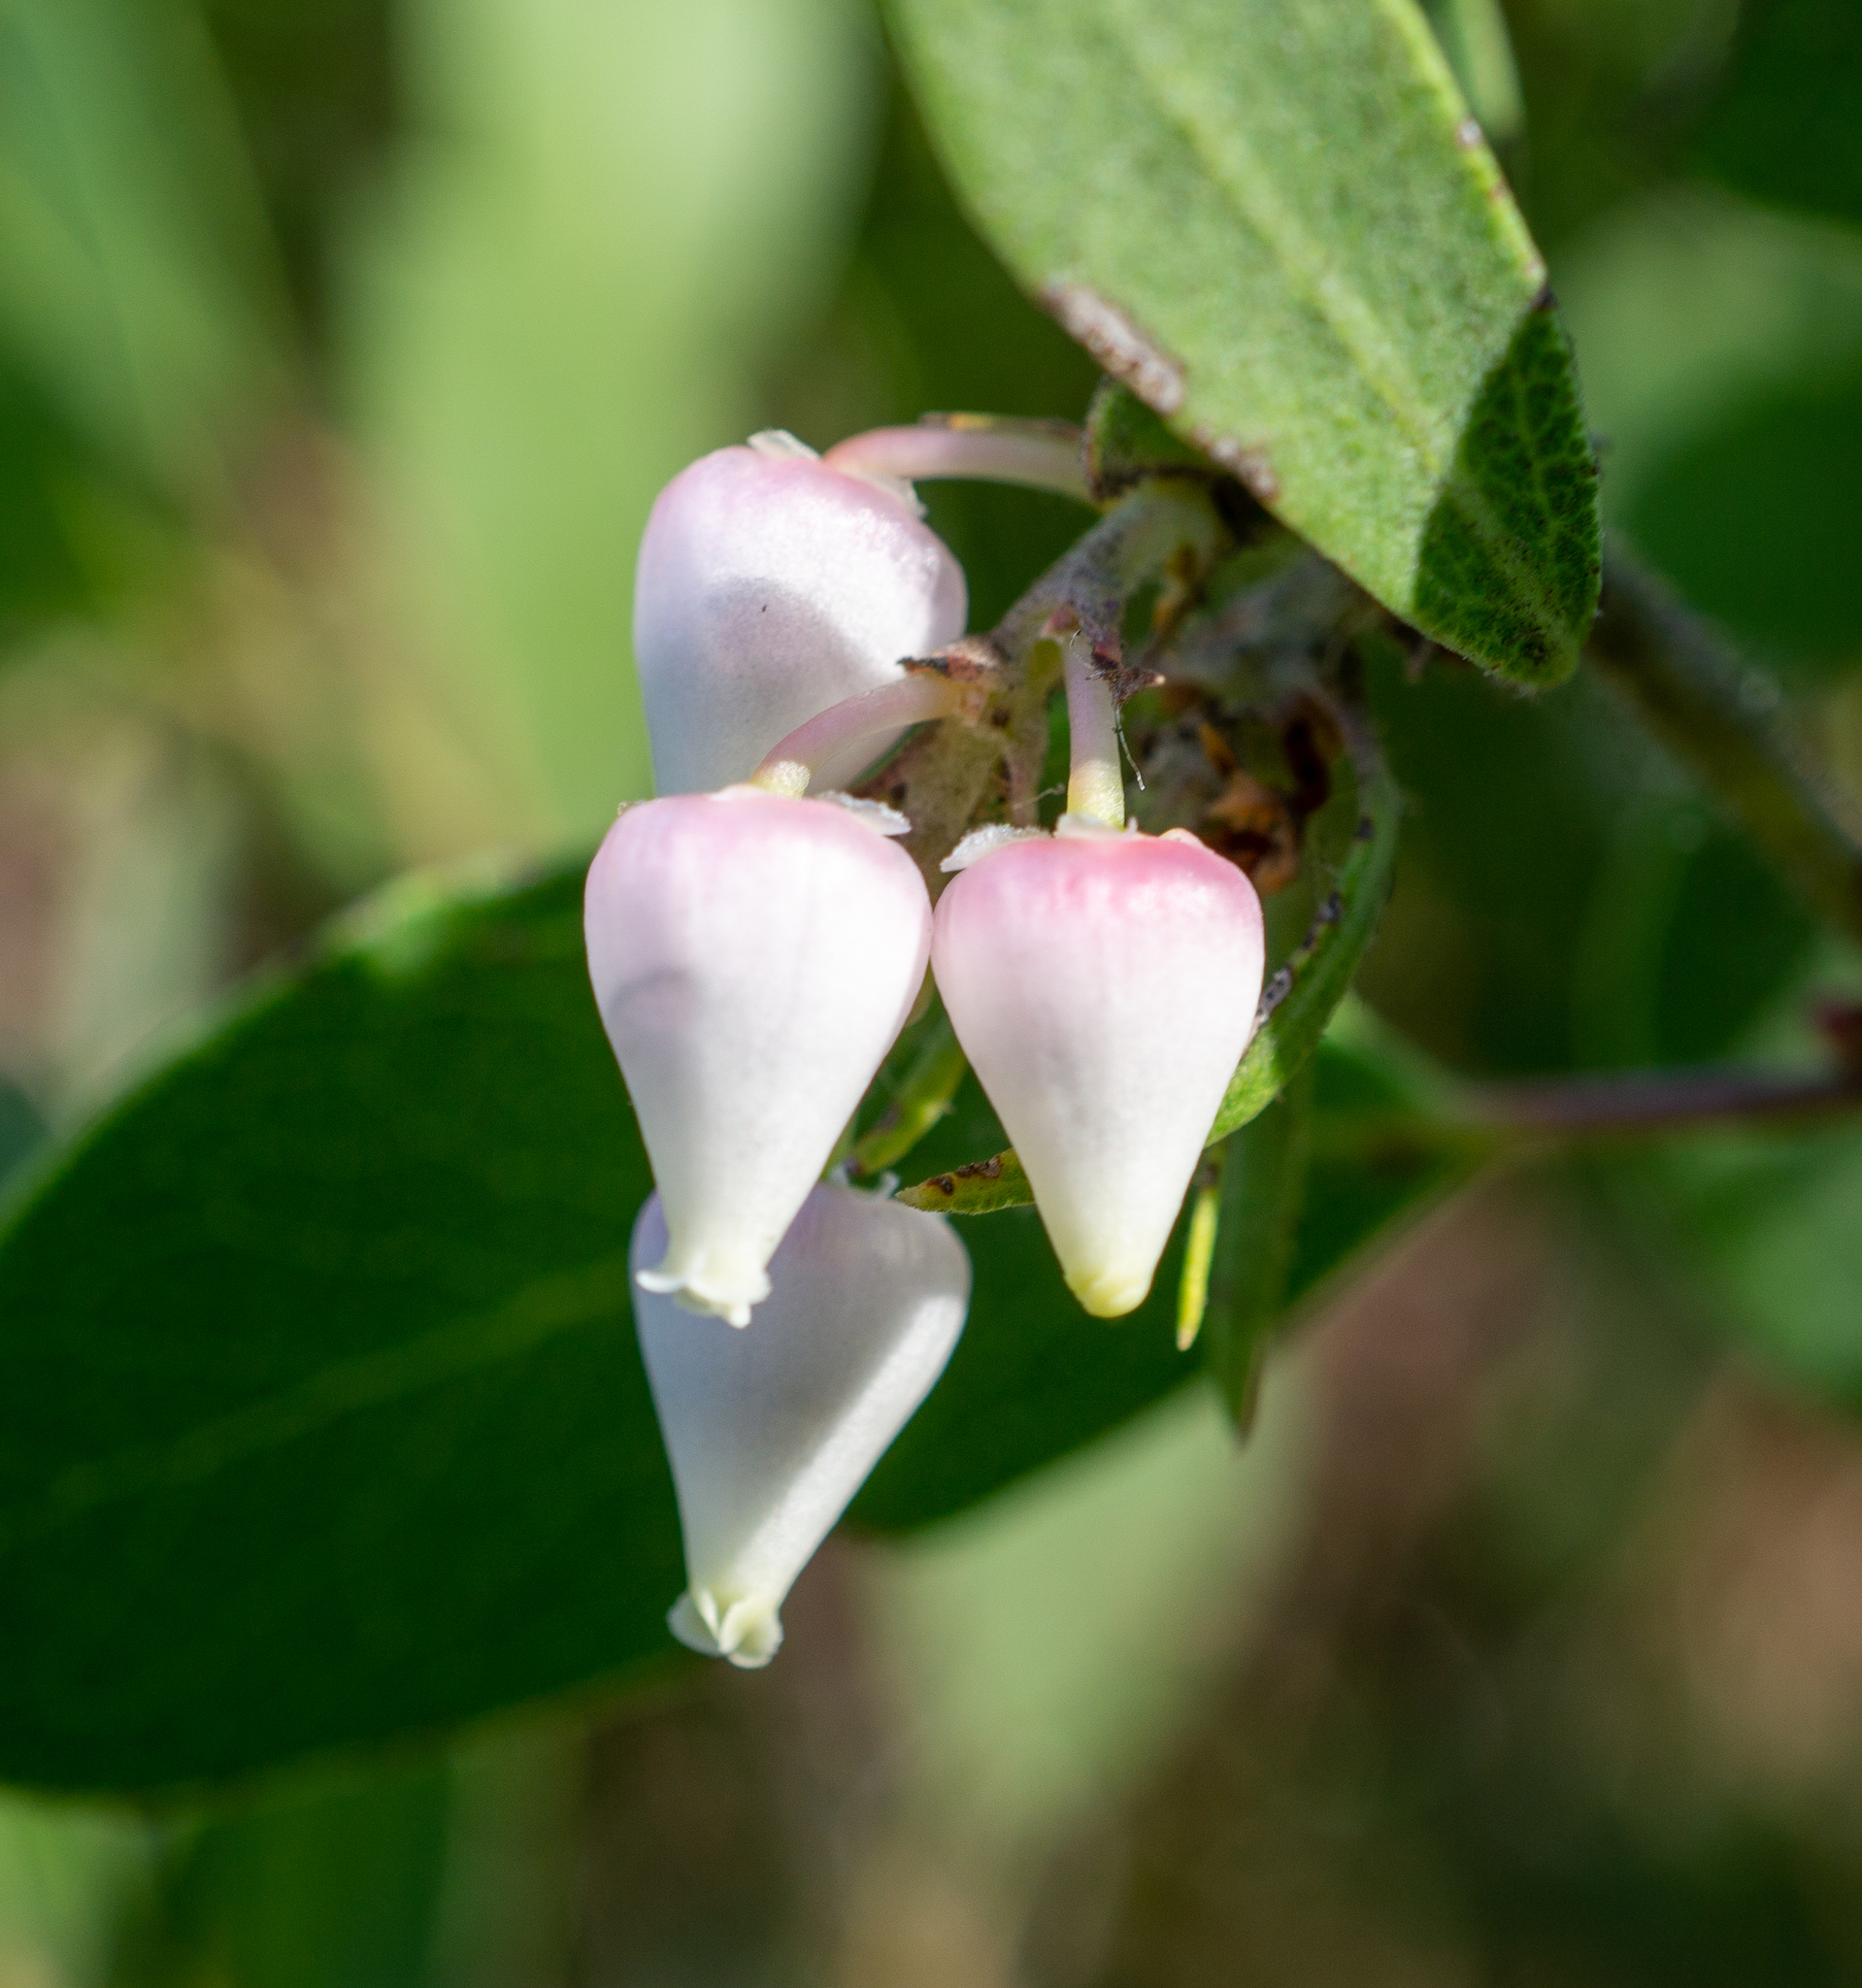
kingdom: Plantae
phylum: Tracheophyta
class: Magnoliopsida
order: Ericales
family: Ericaceae
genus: Arctostaphylos
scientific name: Arctostaphylos pilosula
